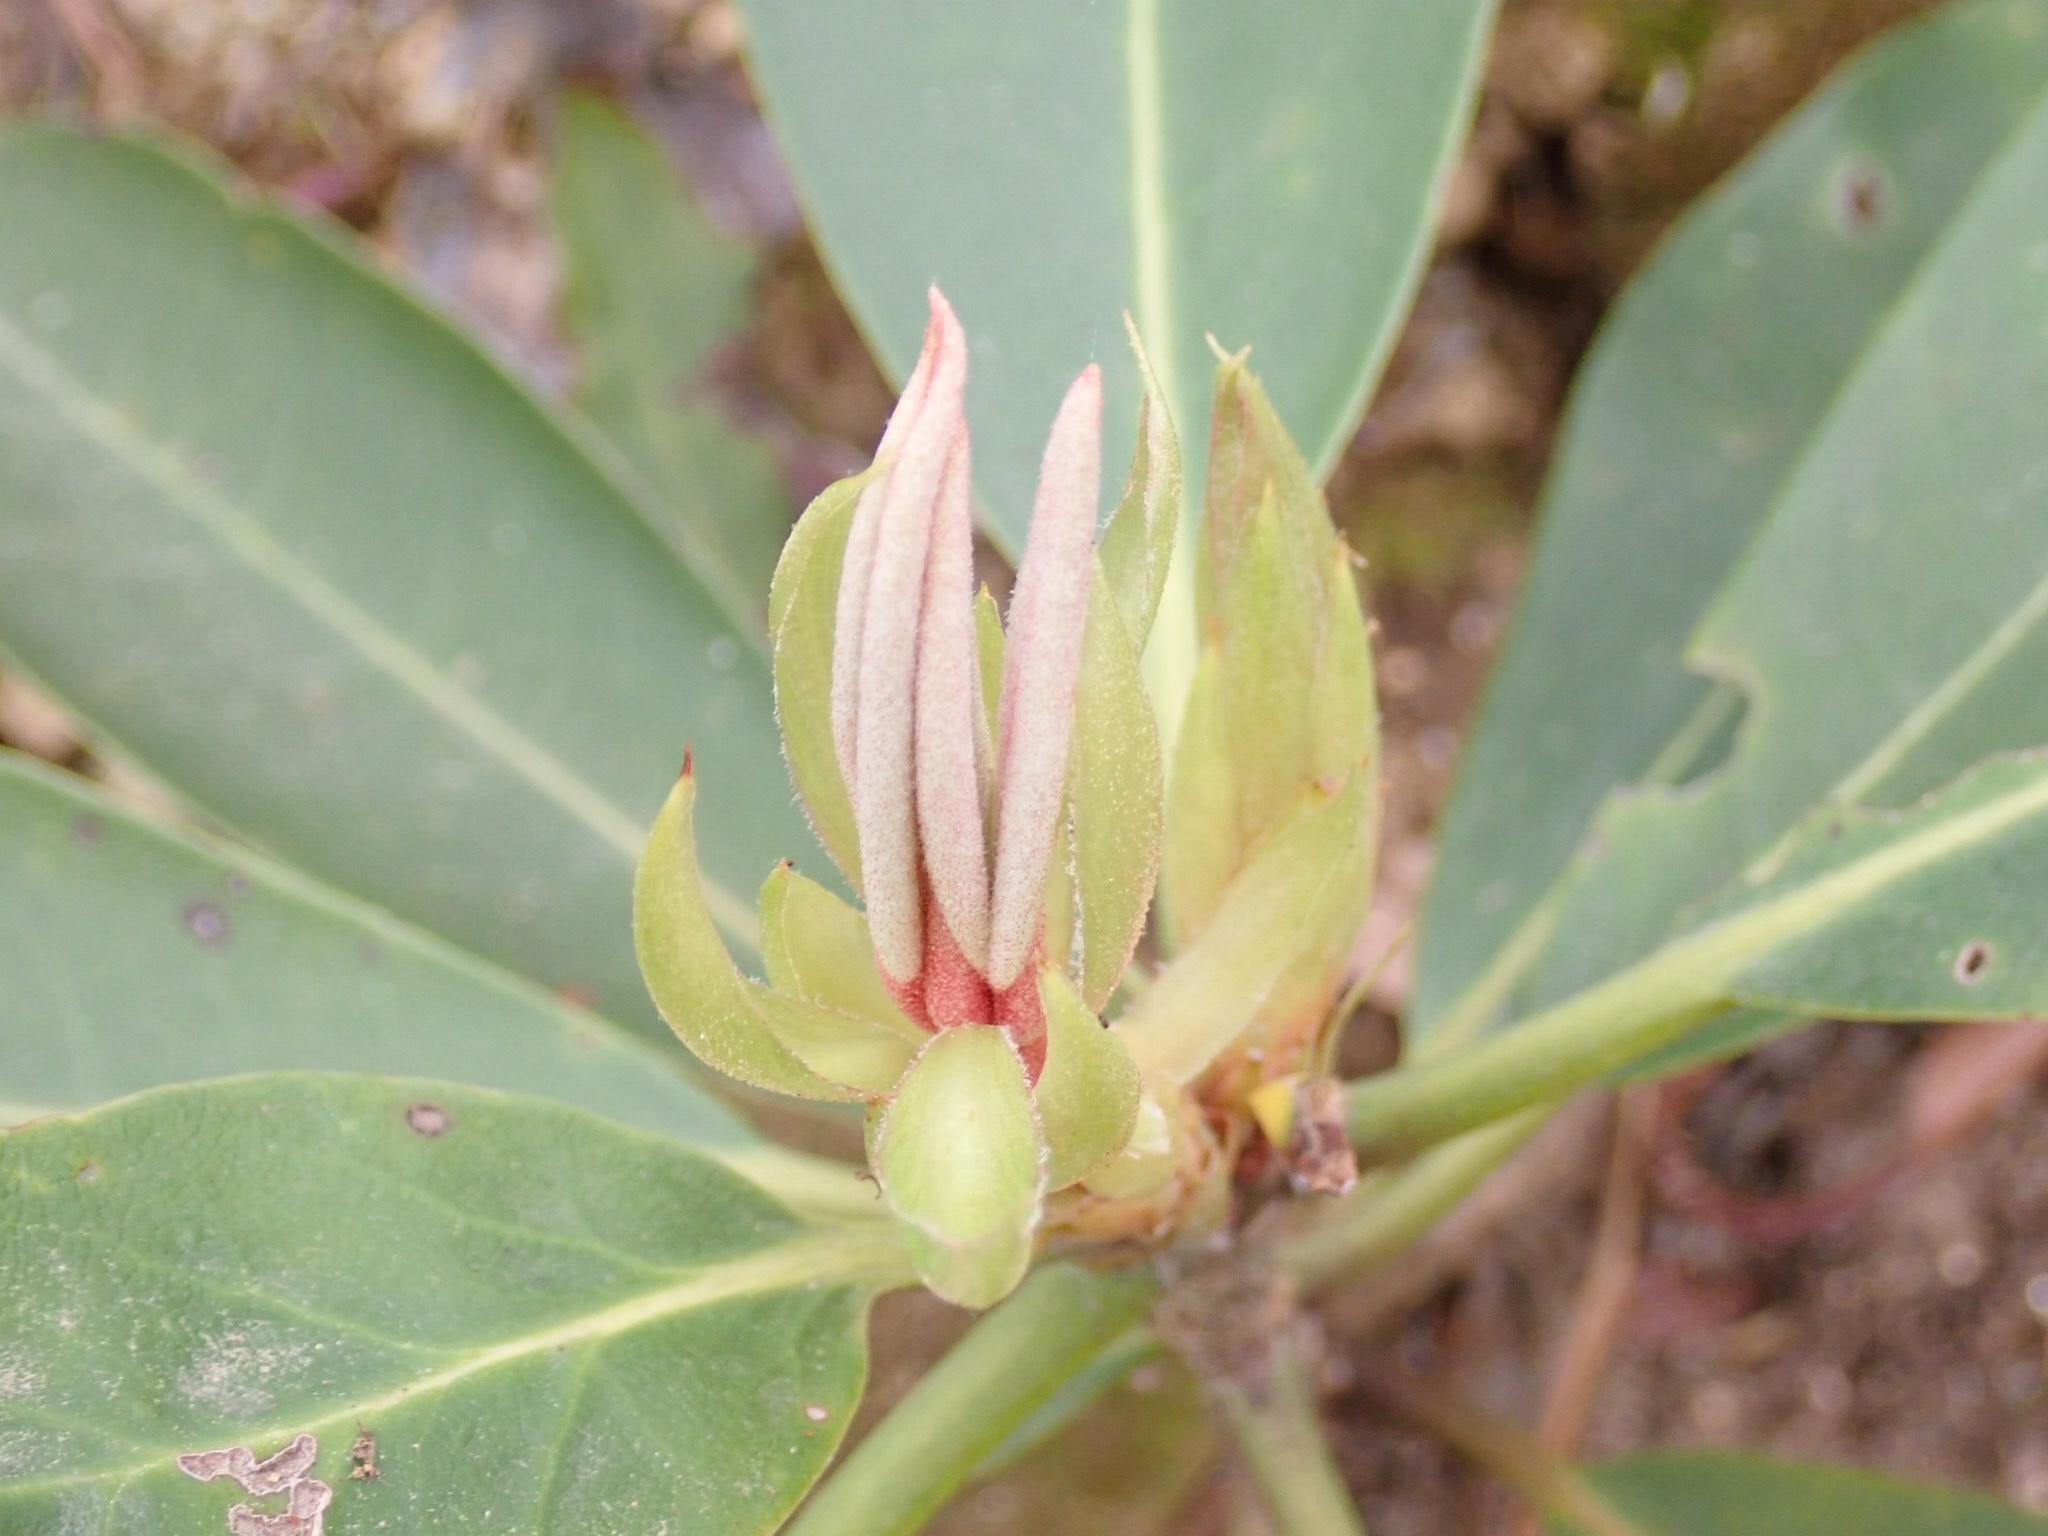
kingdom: Plantae
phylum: Tracheophyta
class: Magnoliopsida
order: Ericales
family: Ericaceae
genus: Rhododendron
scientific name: Rhododendron maximum
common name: Great rhododendron
